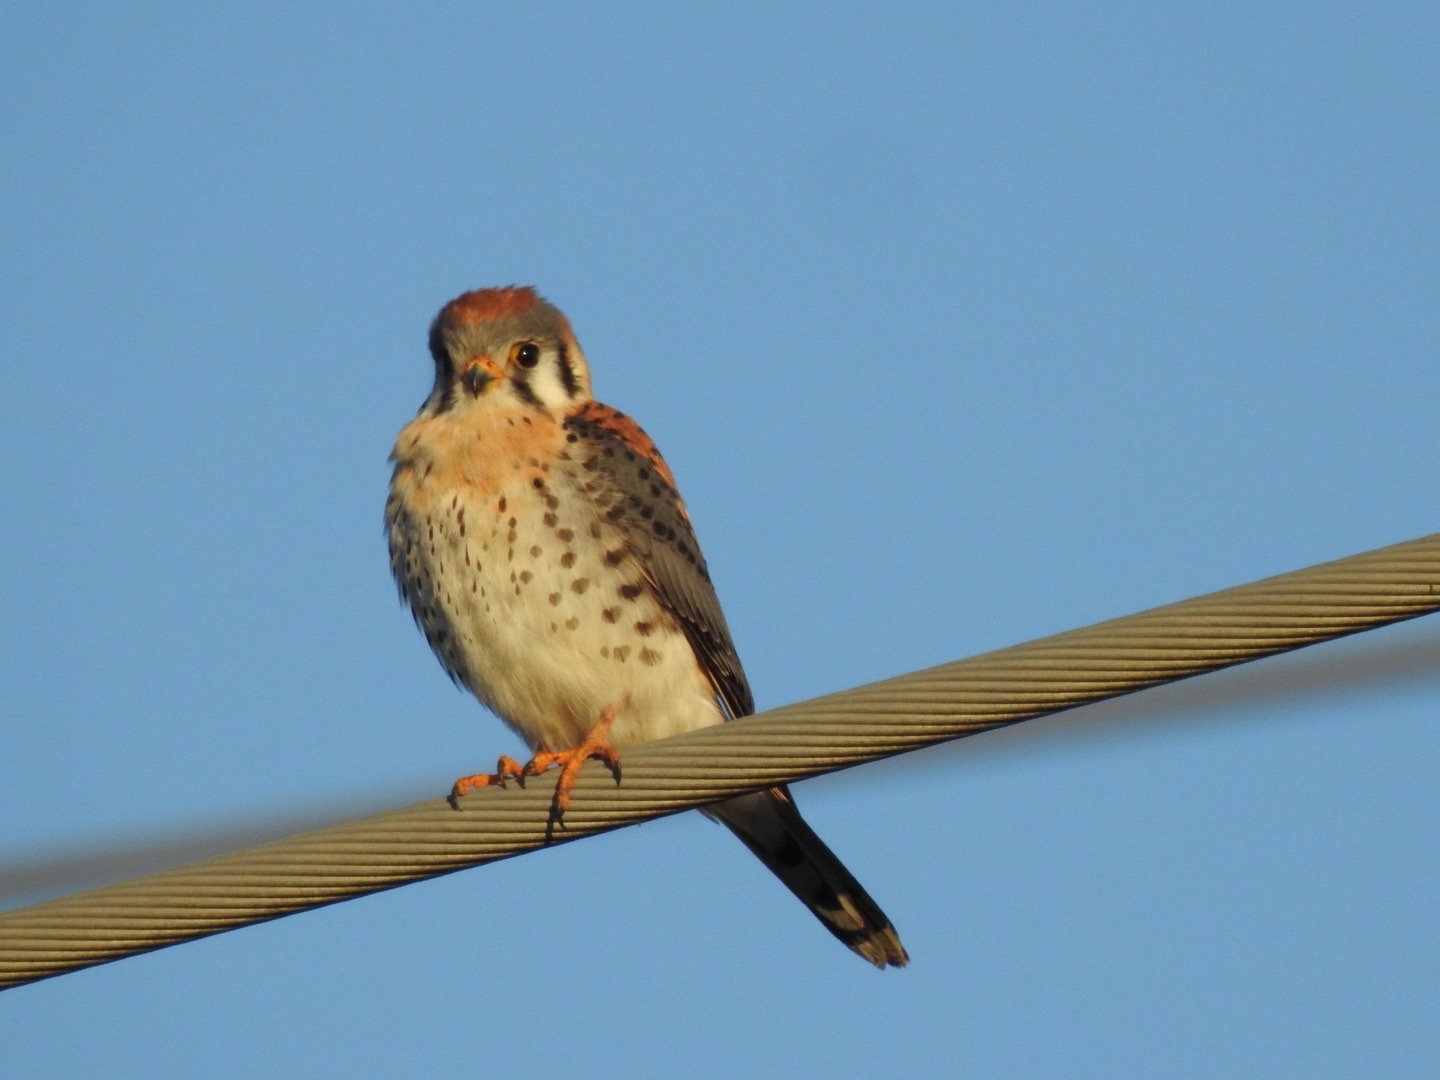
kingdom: Animalia
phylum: Chordata
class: Aves
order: Falconiformes
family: Falconidae
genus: Falco
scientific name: Falco sparverius
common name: American kestrel
